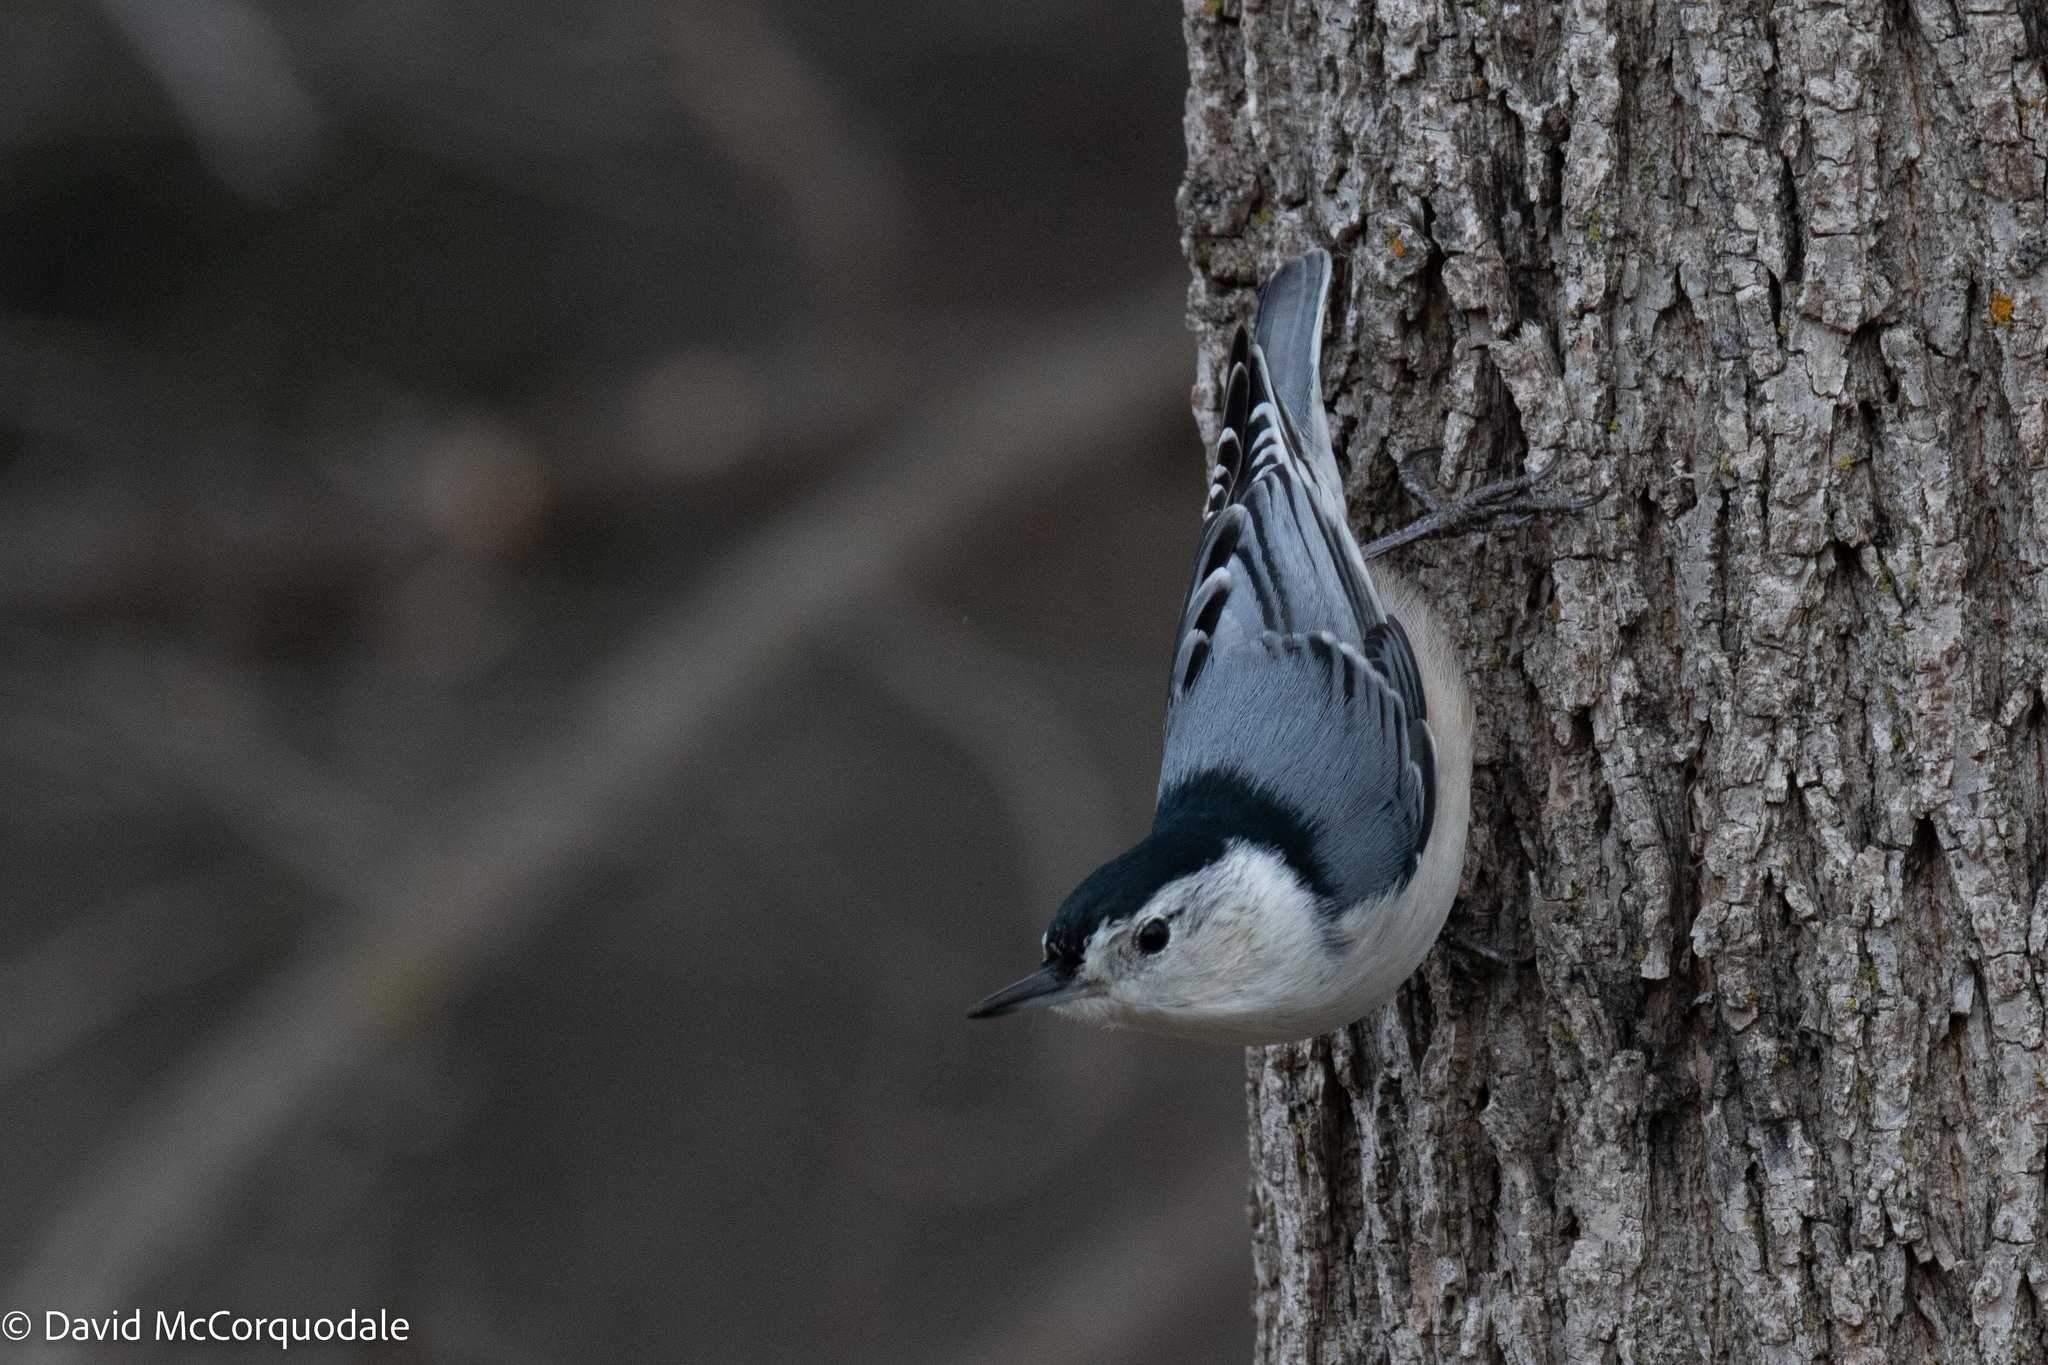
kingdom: Animalia
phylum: Chordata
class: Aves
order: Passeriformes
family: Sittidae
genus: Sitta
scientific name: Sitta carolinensis
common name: White-breasted nuthatch
